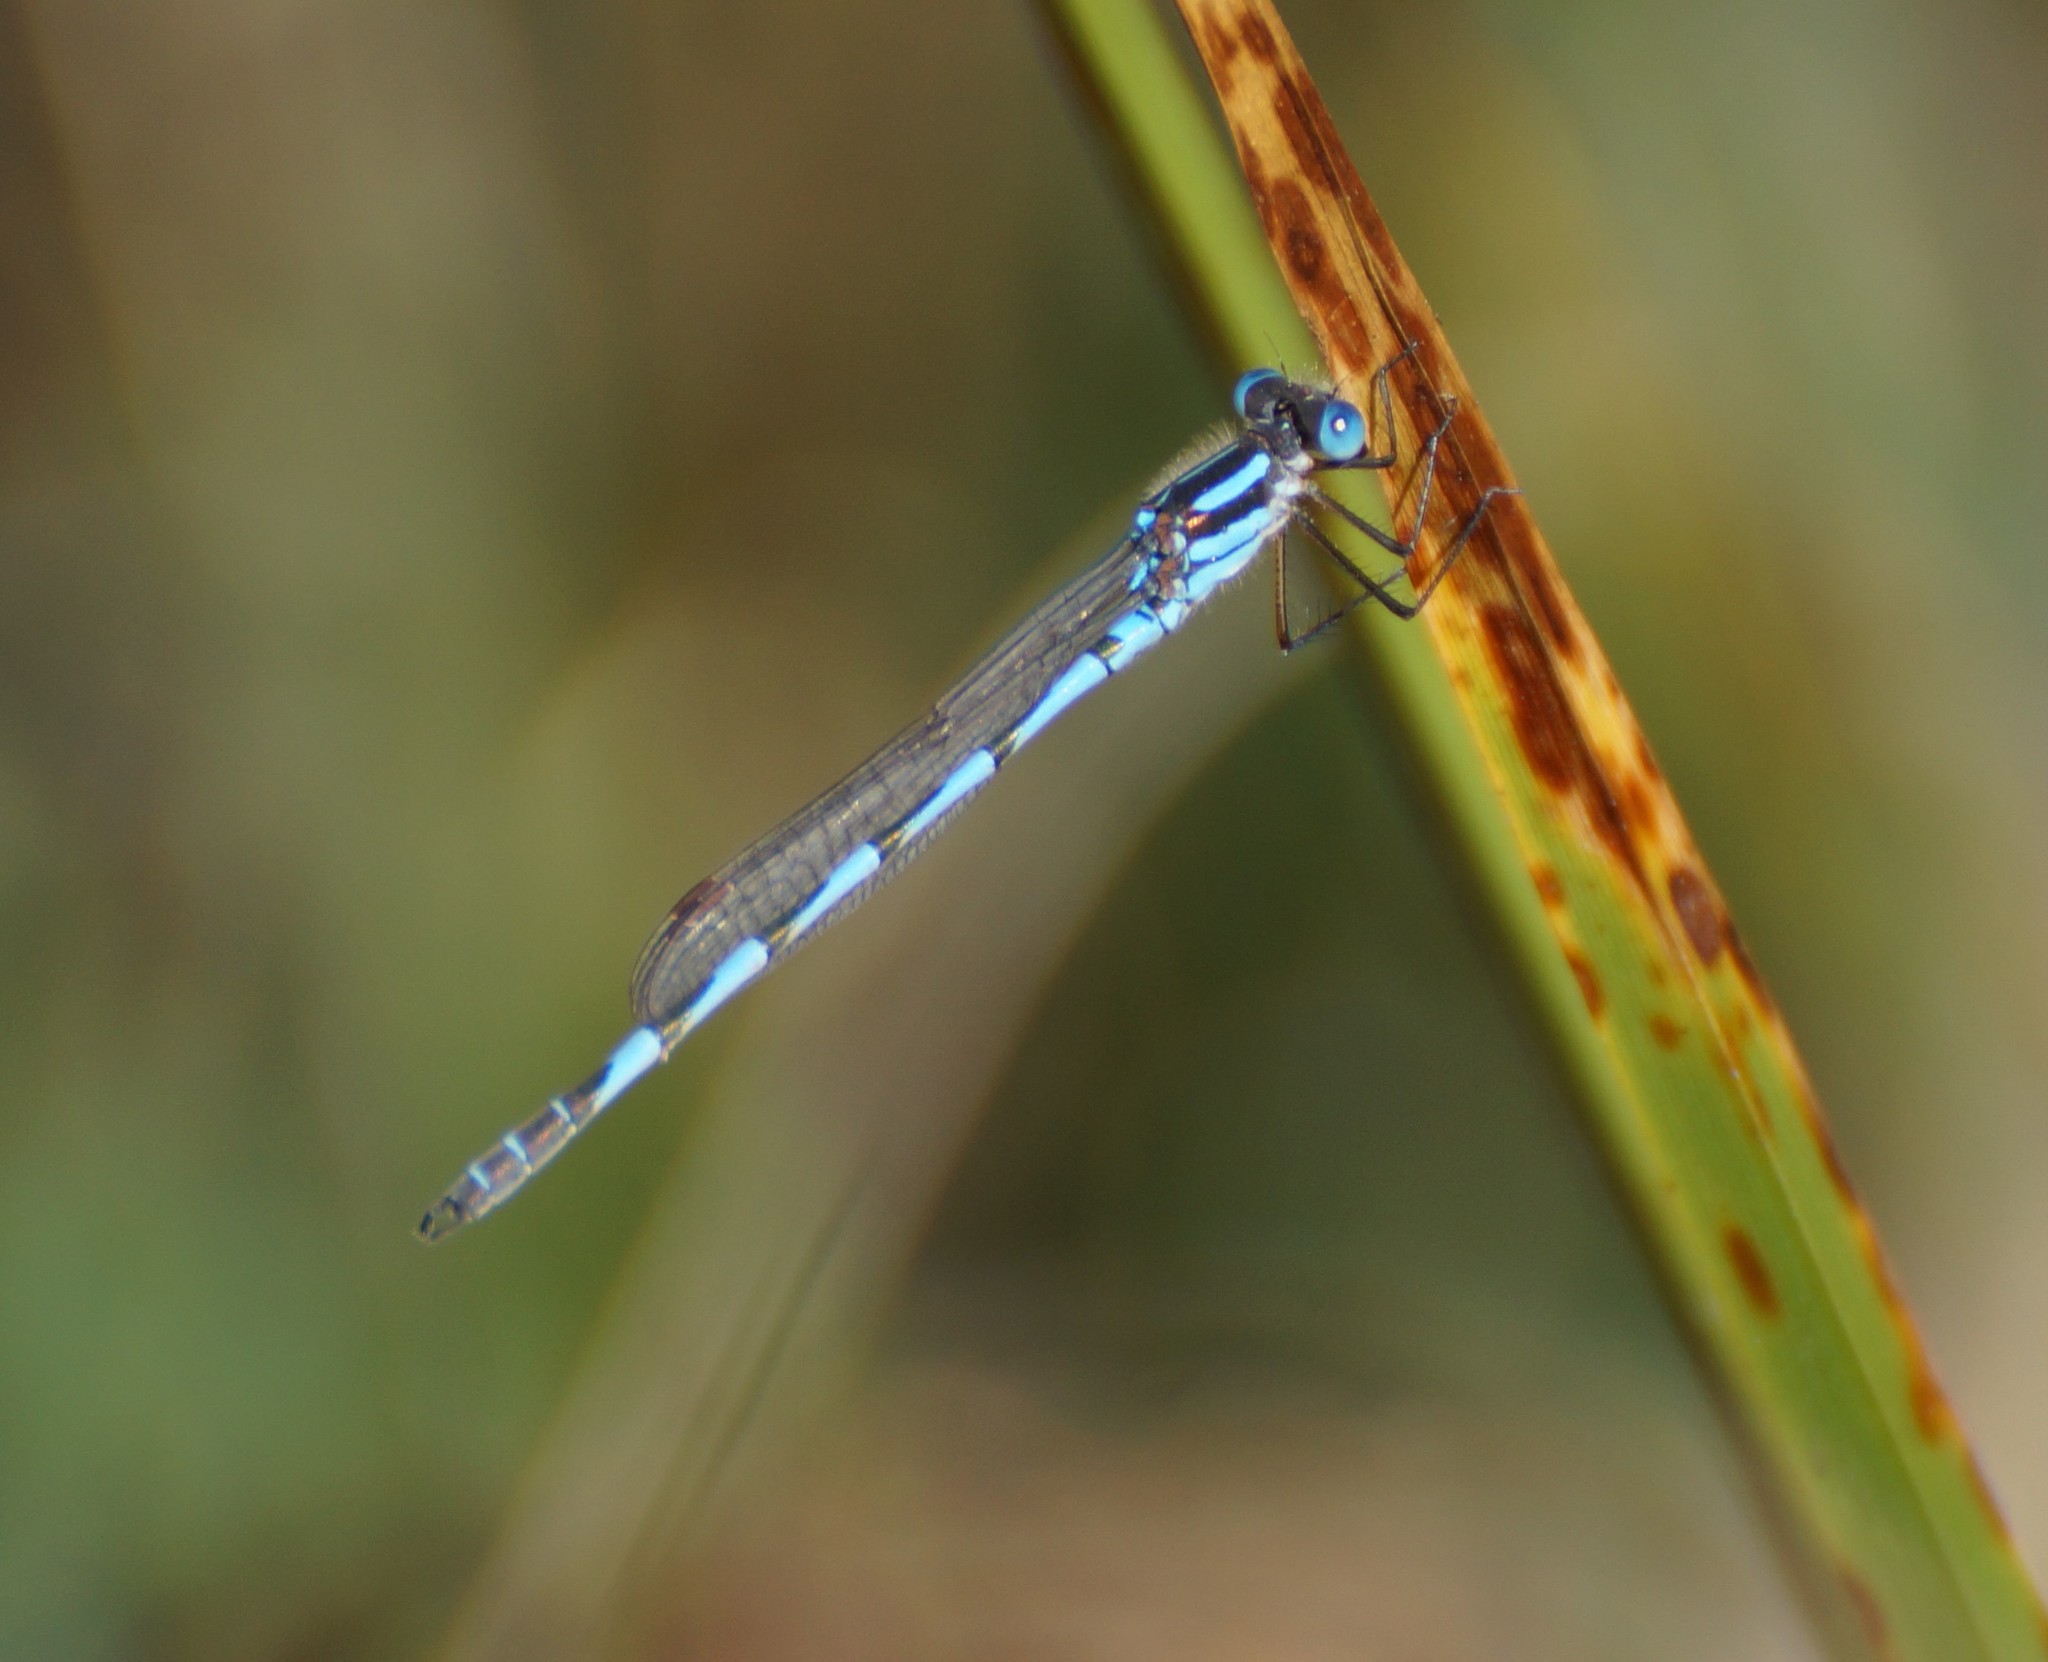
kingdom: Animalia
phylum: Arthropoda
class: Insecta
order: Odonata
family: Lestidae
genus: Austrolestes
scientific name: Austrolestes annulosus
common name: Blue ringtail
